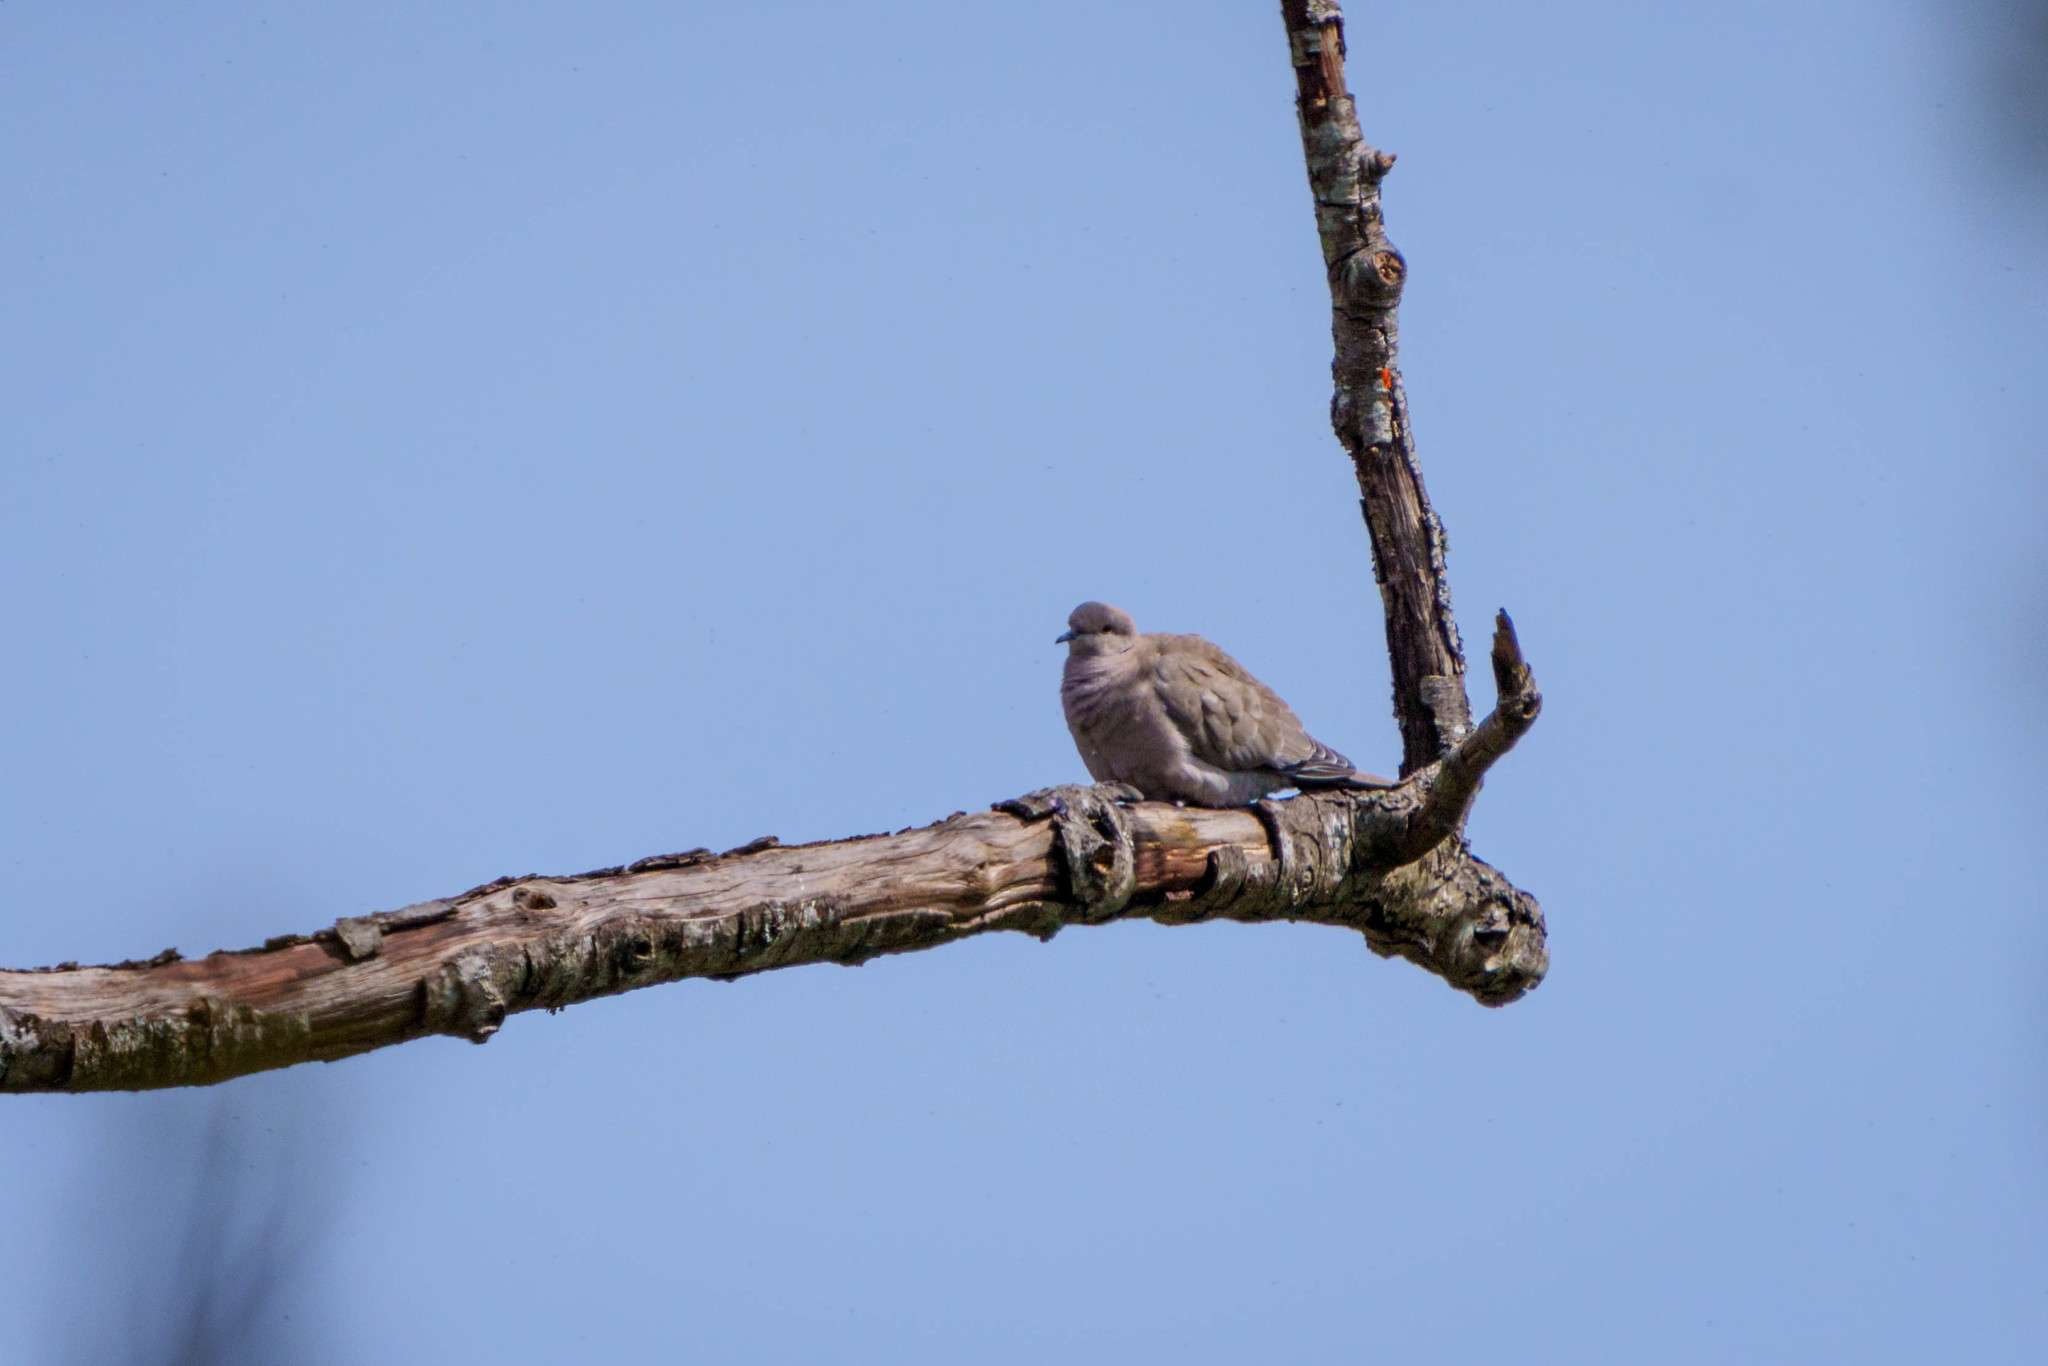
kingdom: Animalia
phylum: Chordata
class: Aves
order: Columbiformes
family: Columbidae
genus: Streptopelia
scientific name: Streptopelia decaocto
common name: Eurasian collared dove
